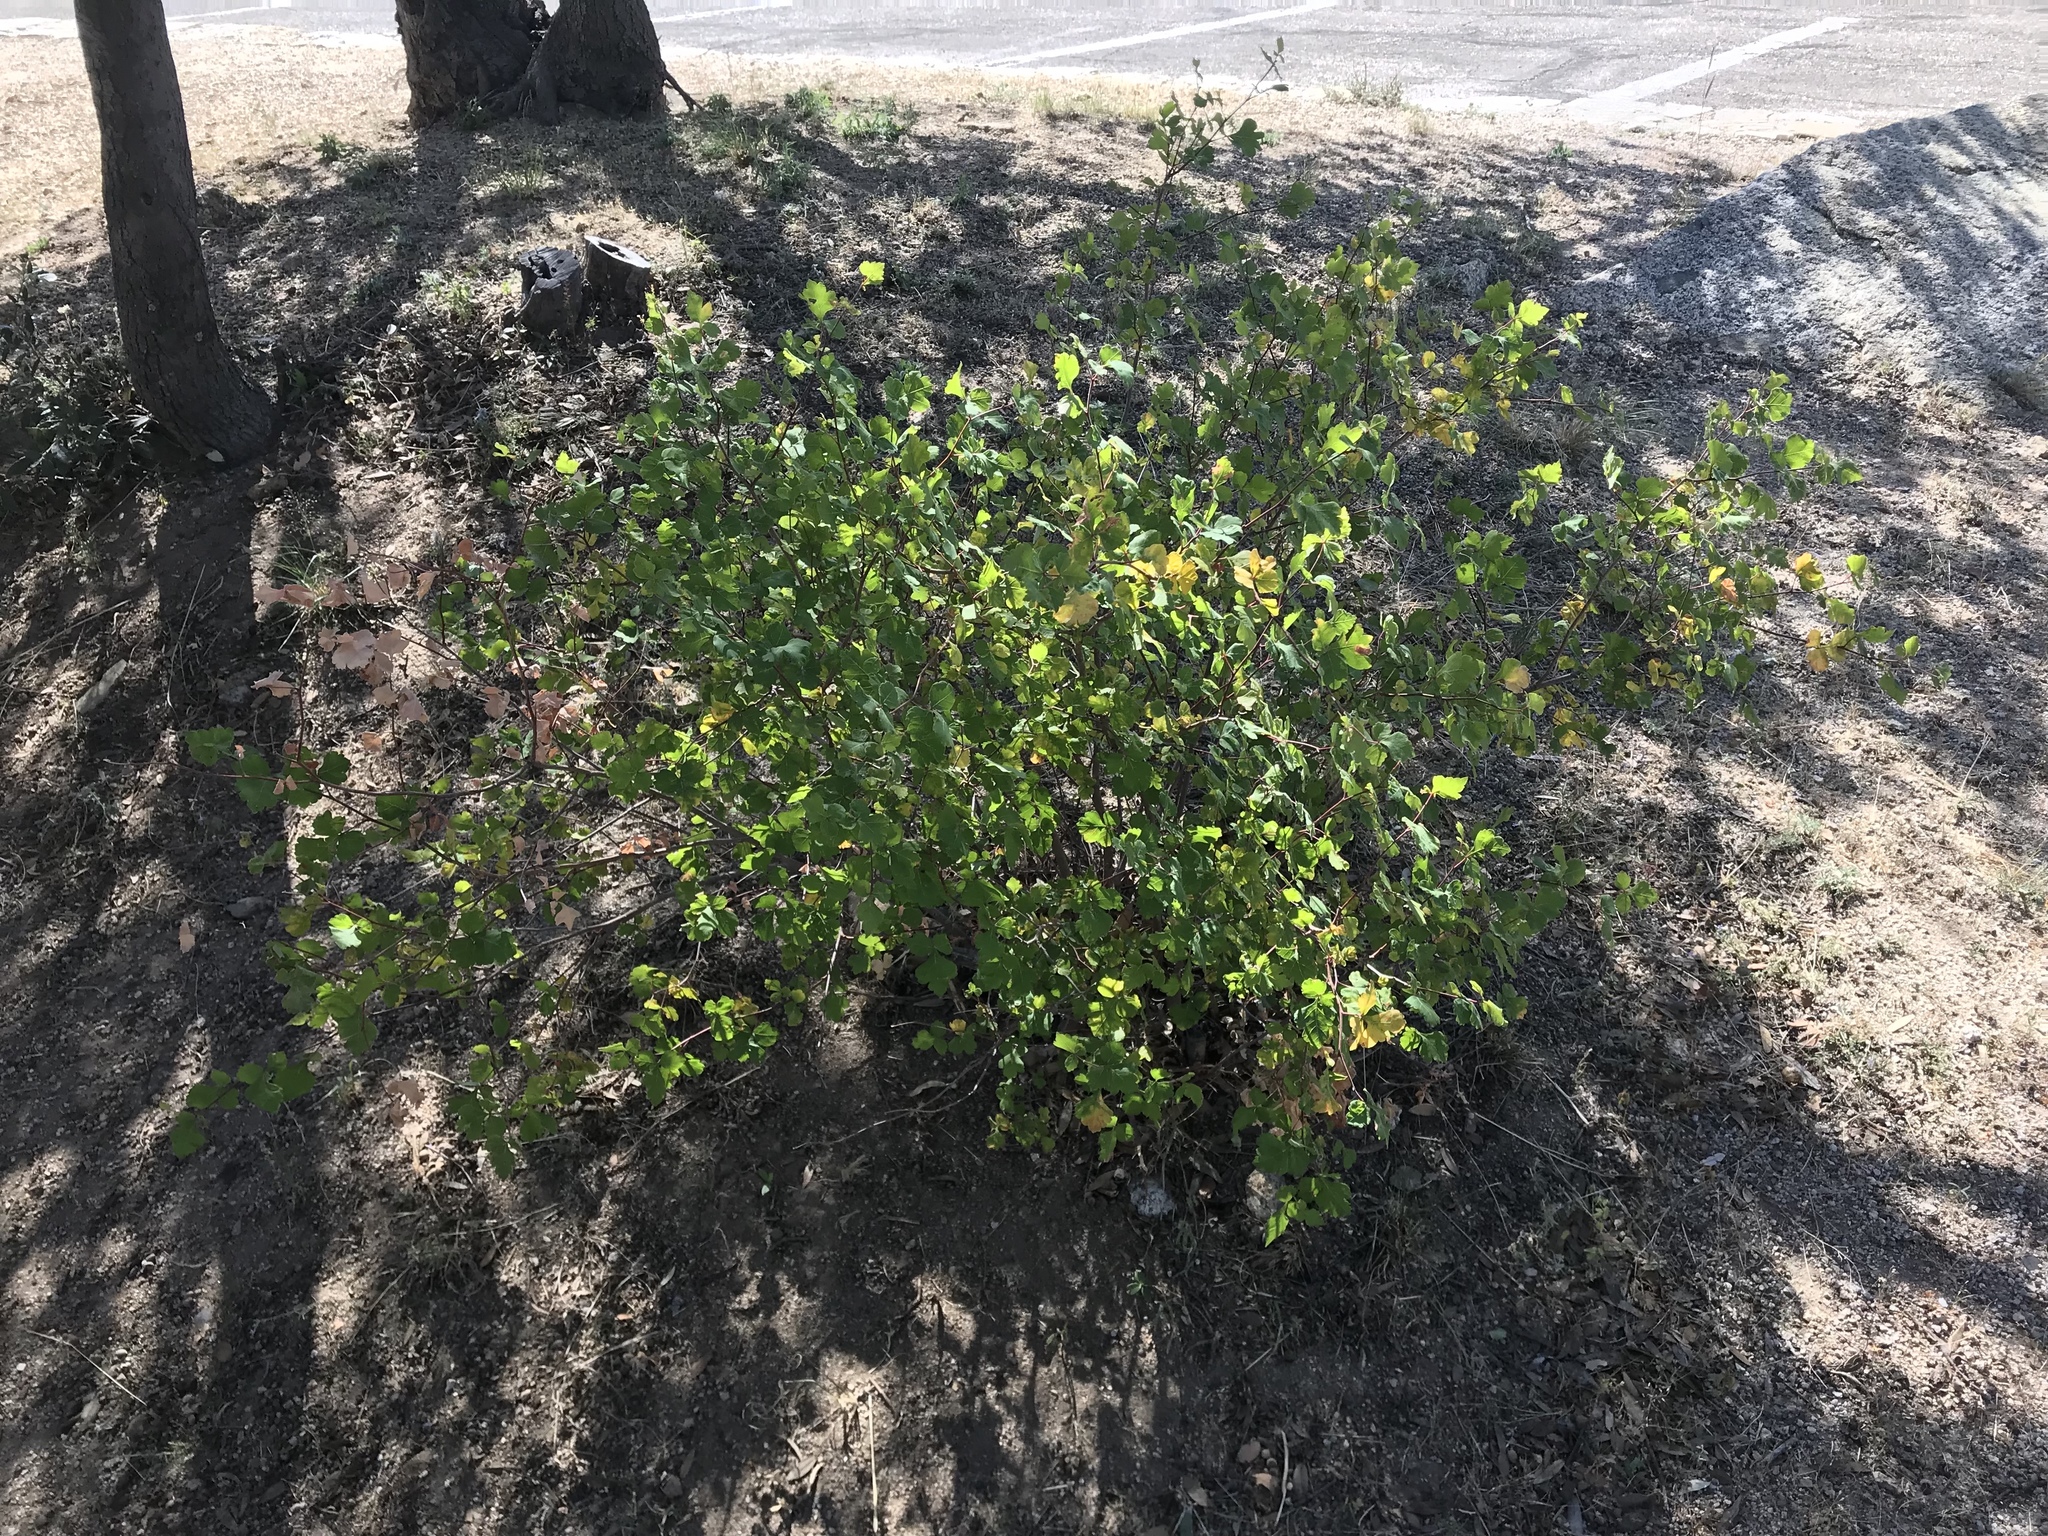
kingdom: Plantae
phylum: Tracheophyta
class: Magnoliopsida
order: Sapindales
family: Anacardiaceae
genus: Rhus
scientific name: Rhus aromatica
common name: Aromatic sumac
